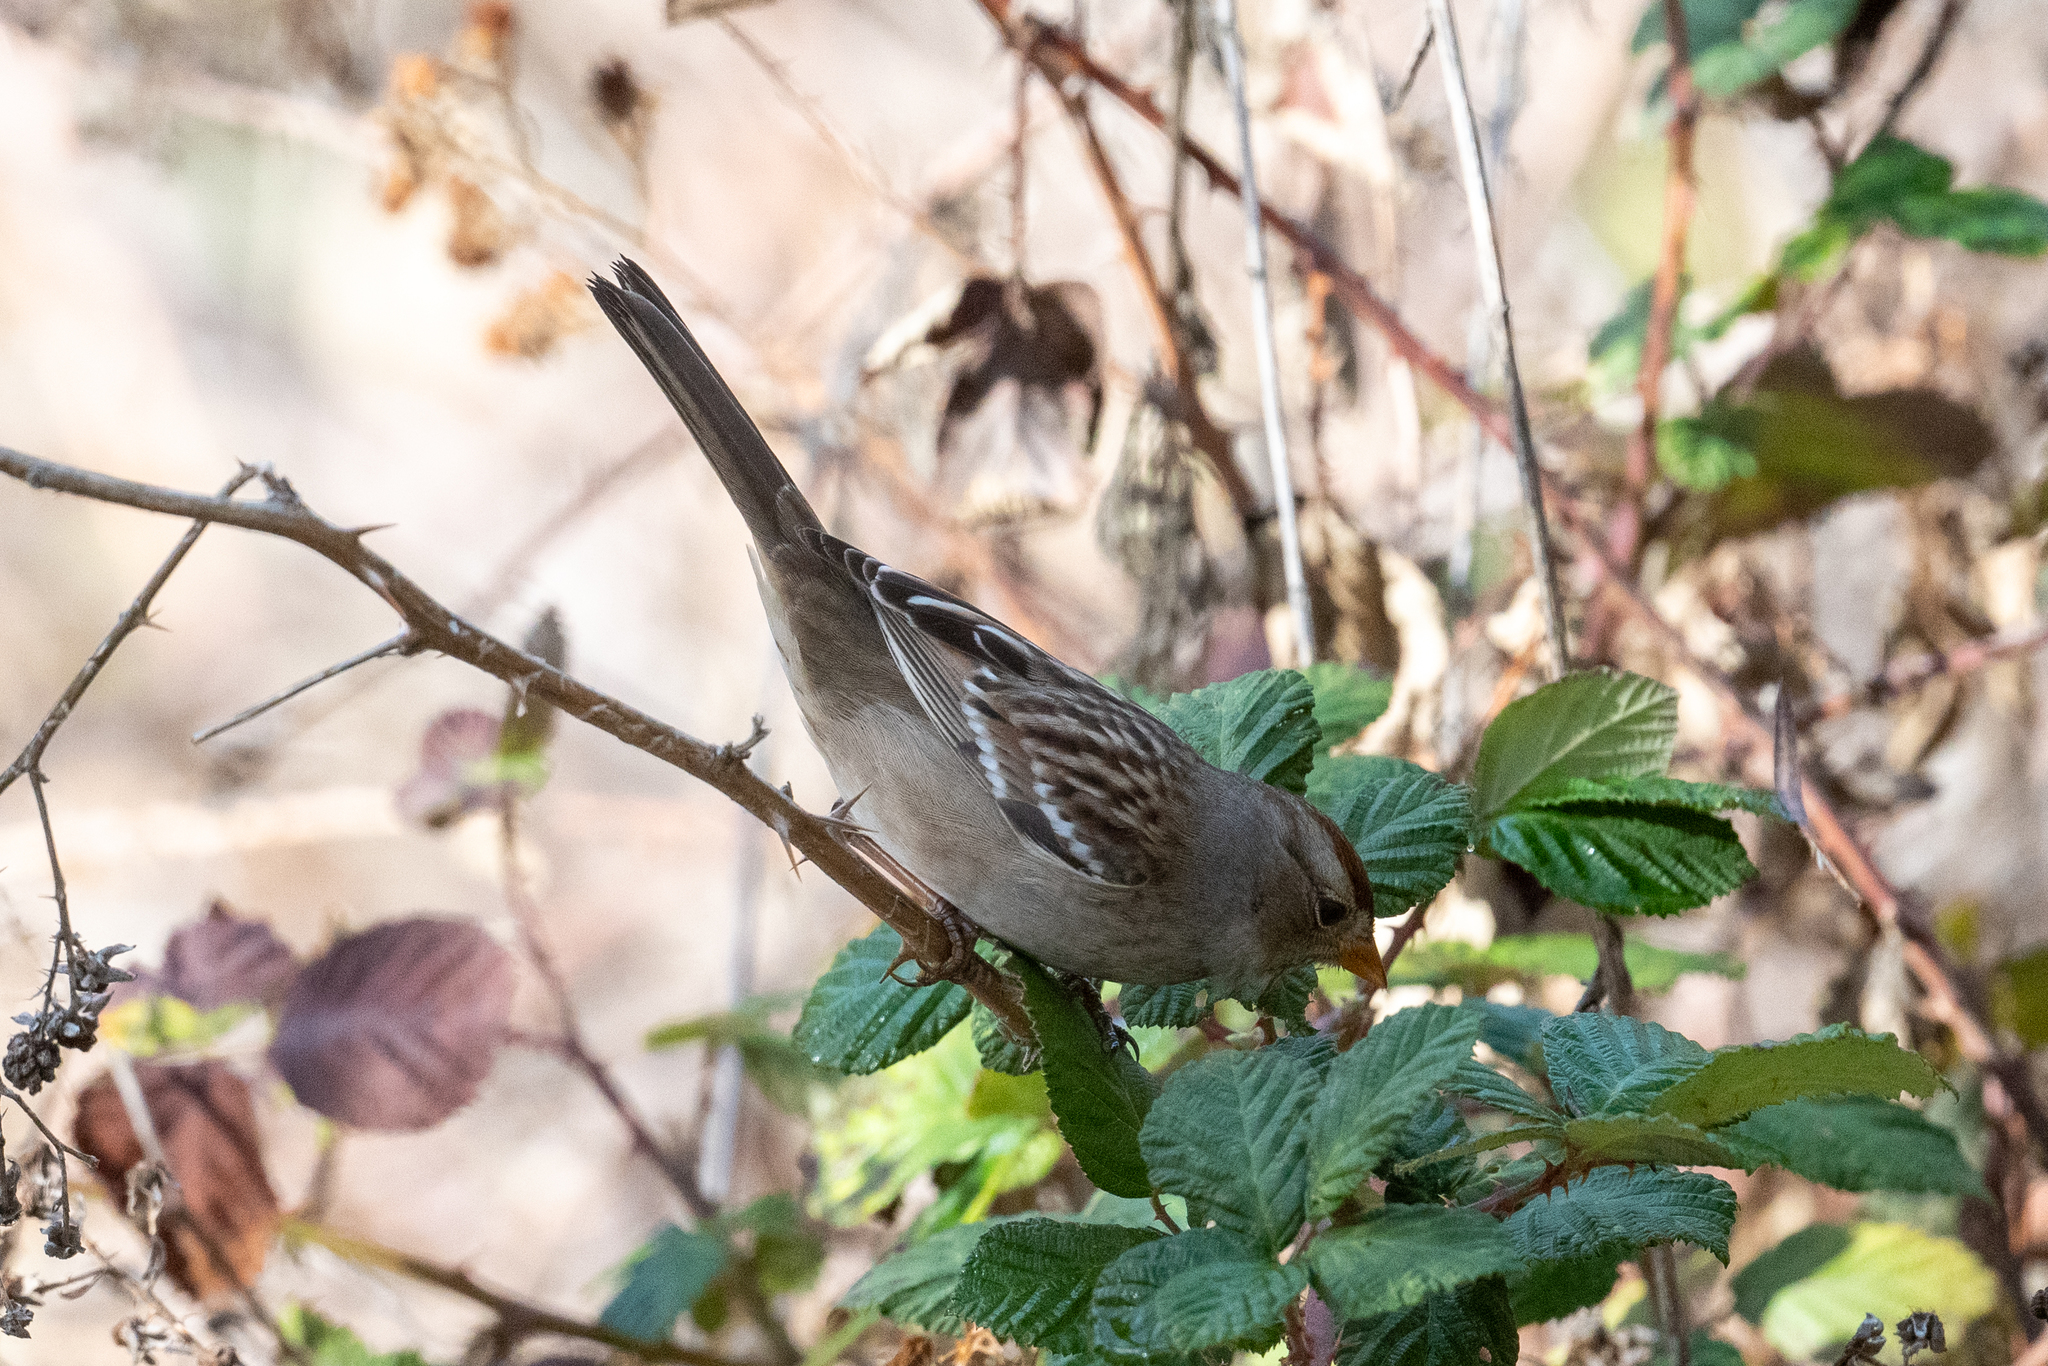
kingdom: Animalia
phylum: Chordata
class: Aves
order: Passeriformes
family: Passerellidae
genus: Zonotrichia
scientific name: Zonotrichia leucophrys
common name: White-crowned sparrow
